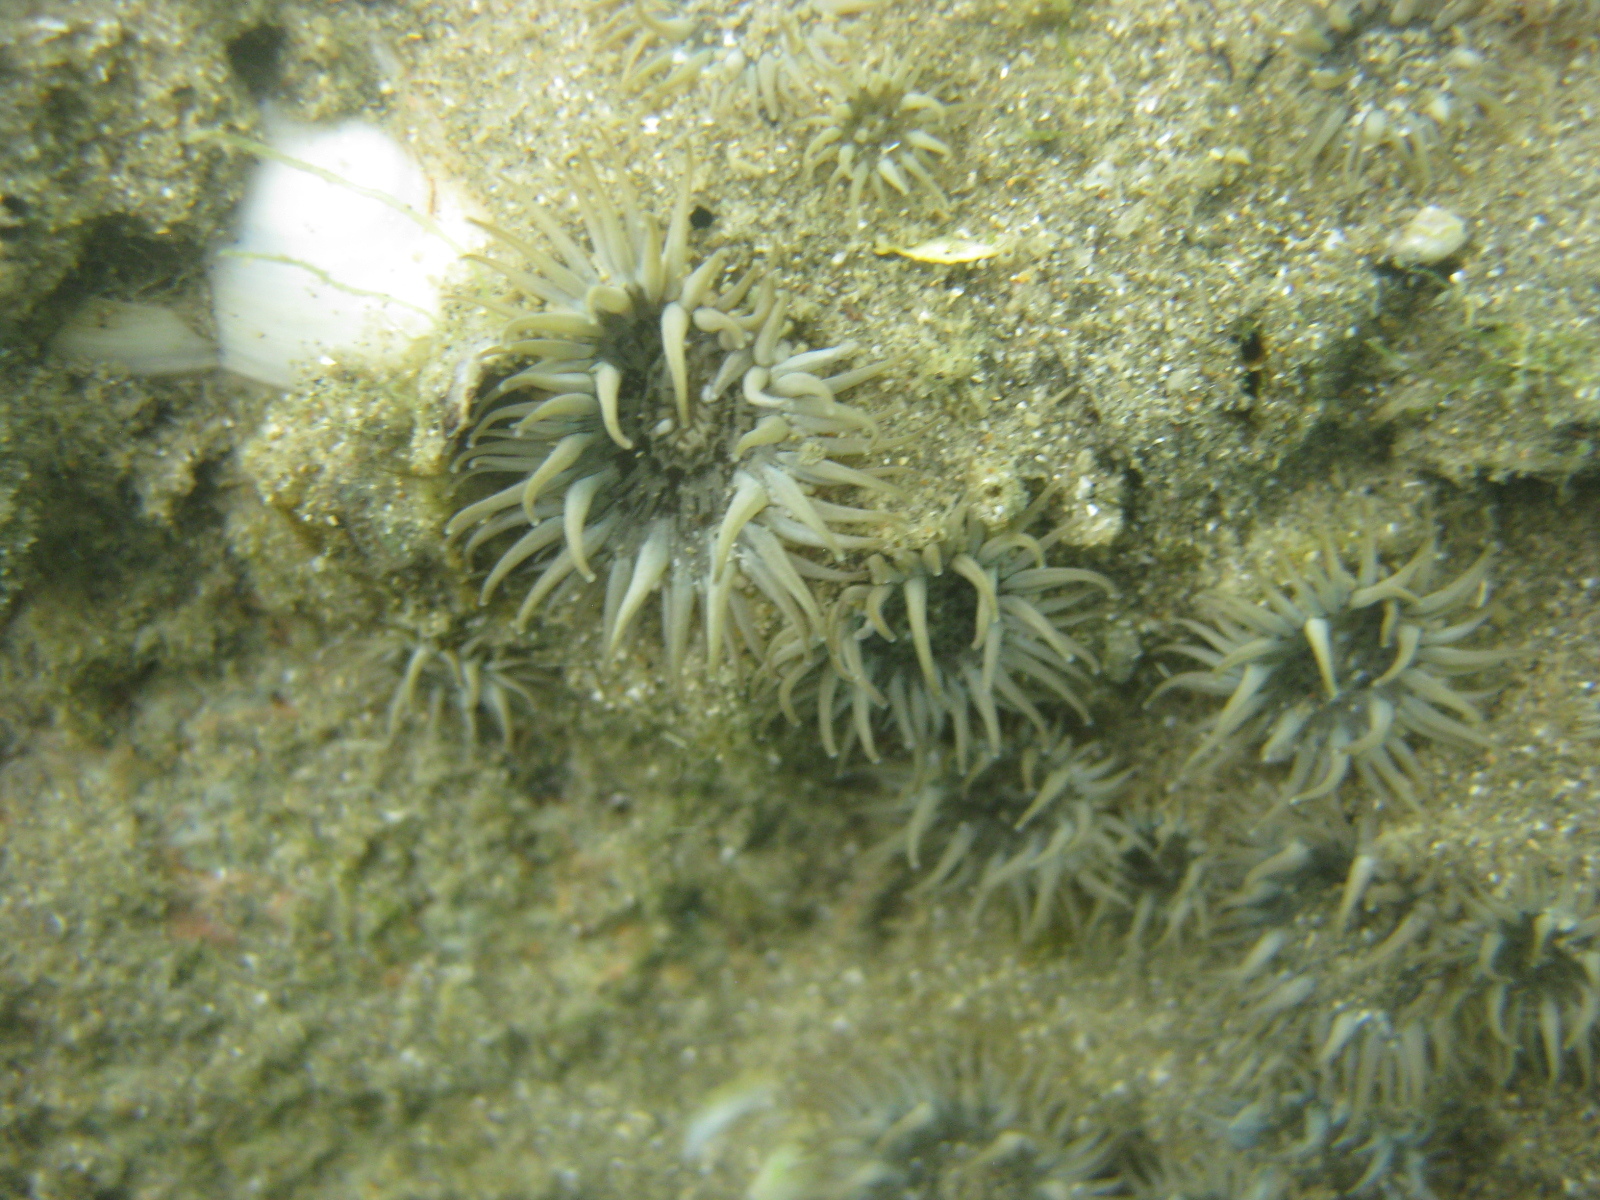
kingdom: Animalia
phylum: Cnidaria
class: Anthozoa
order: Actiniaria
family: Actiniidae
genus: Anthopleura
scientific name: Anthopleura hermaphroditica
